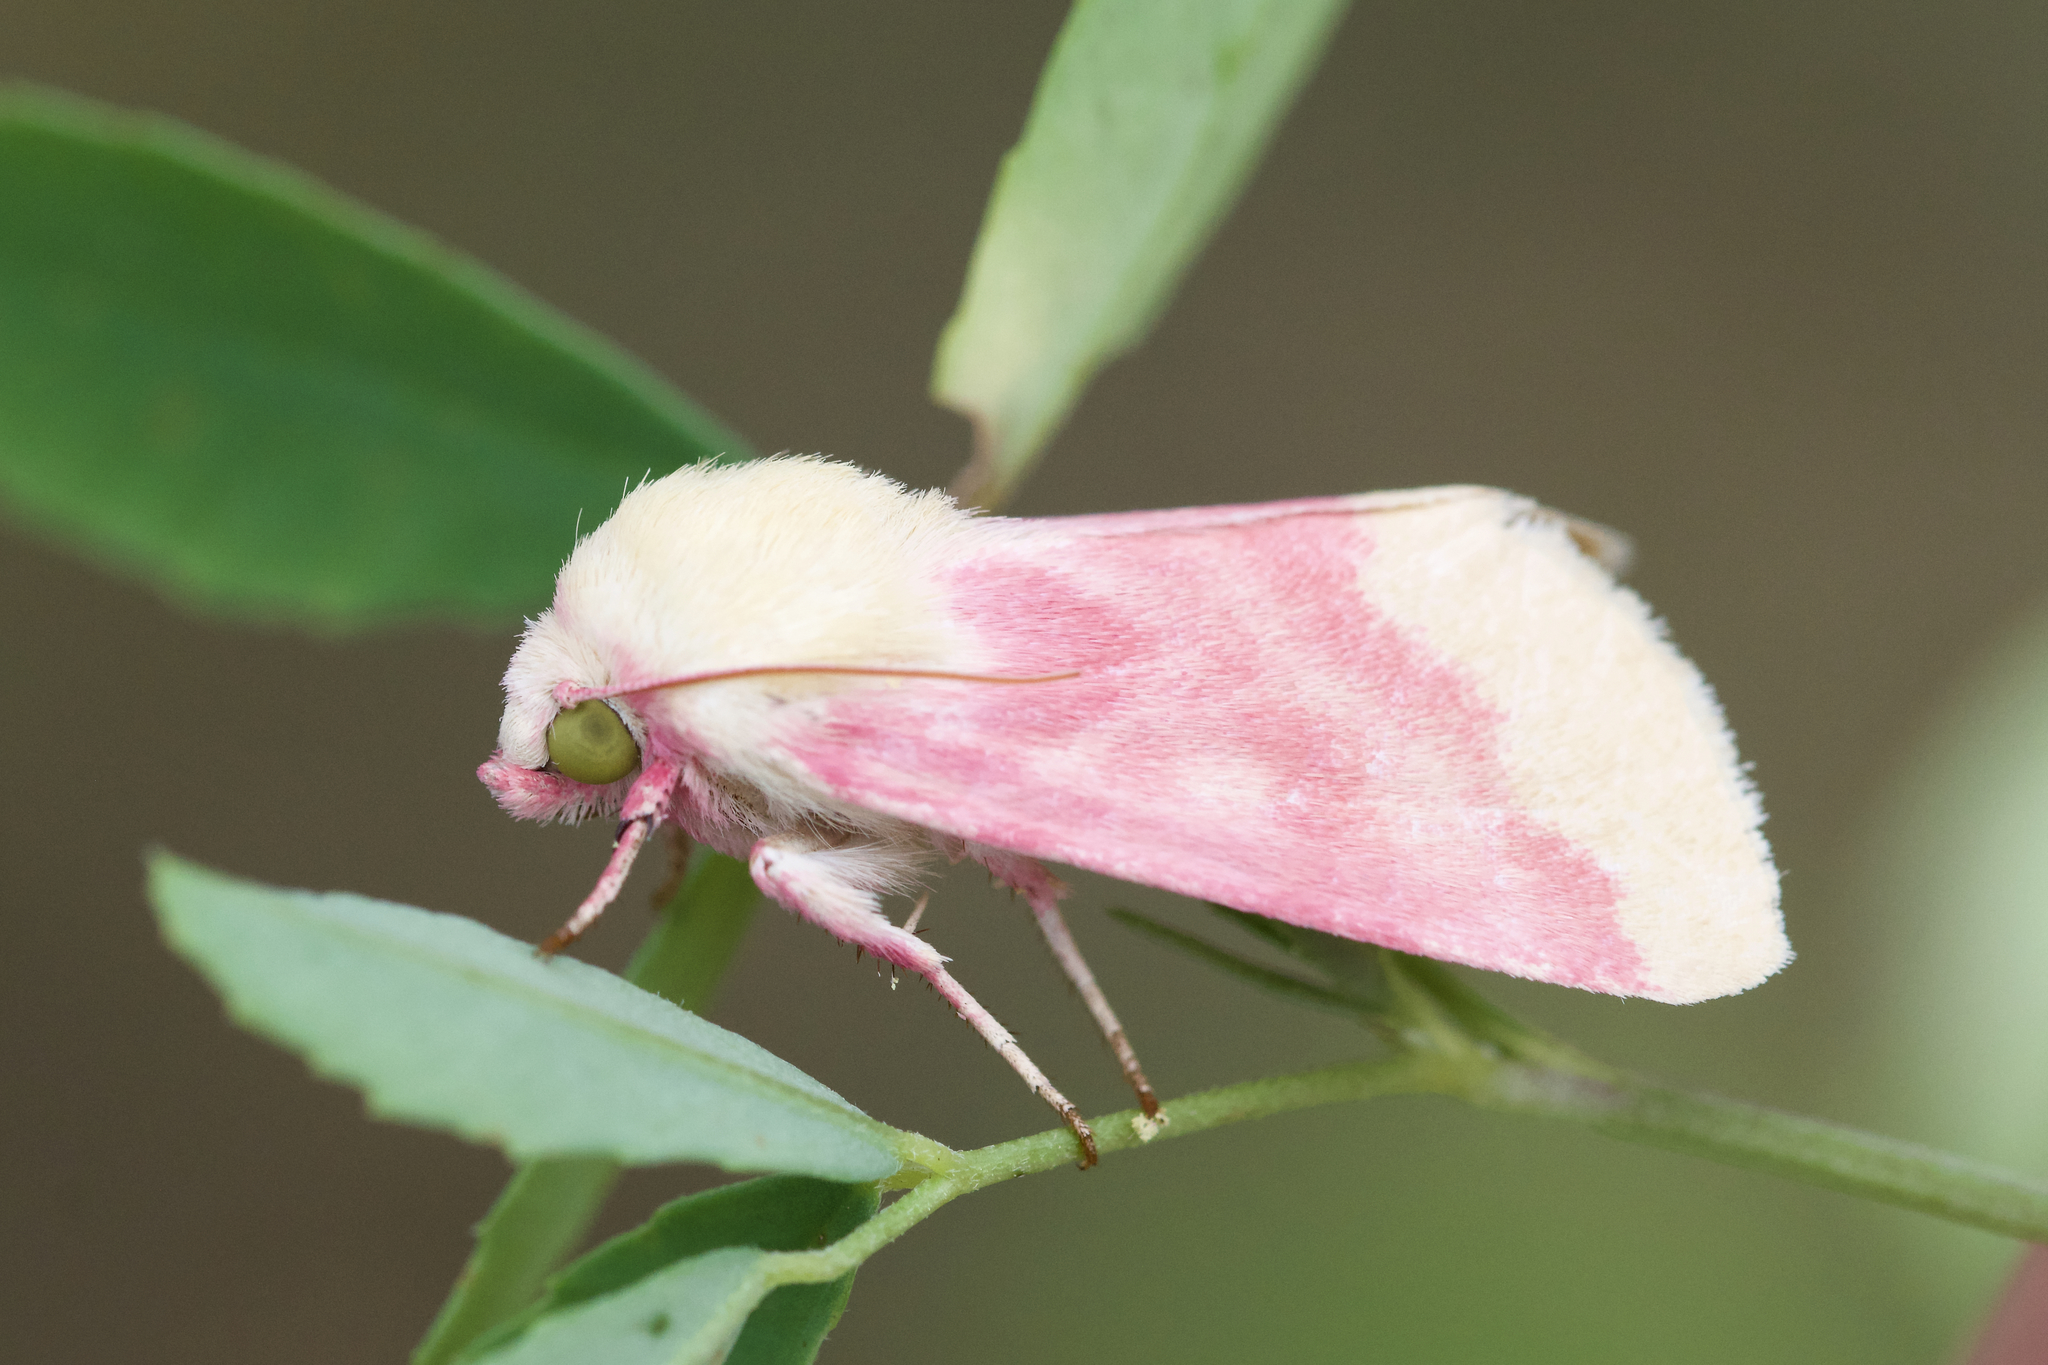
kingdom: Animalia
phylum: Arthropoda
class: Insecta
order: Lepidoptera
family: Noctuidae
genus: Schinia
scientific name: Schinia florida
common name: Primrose moth
